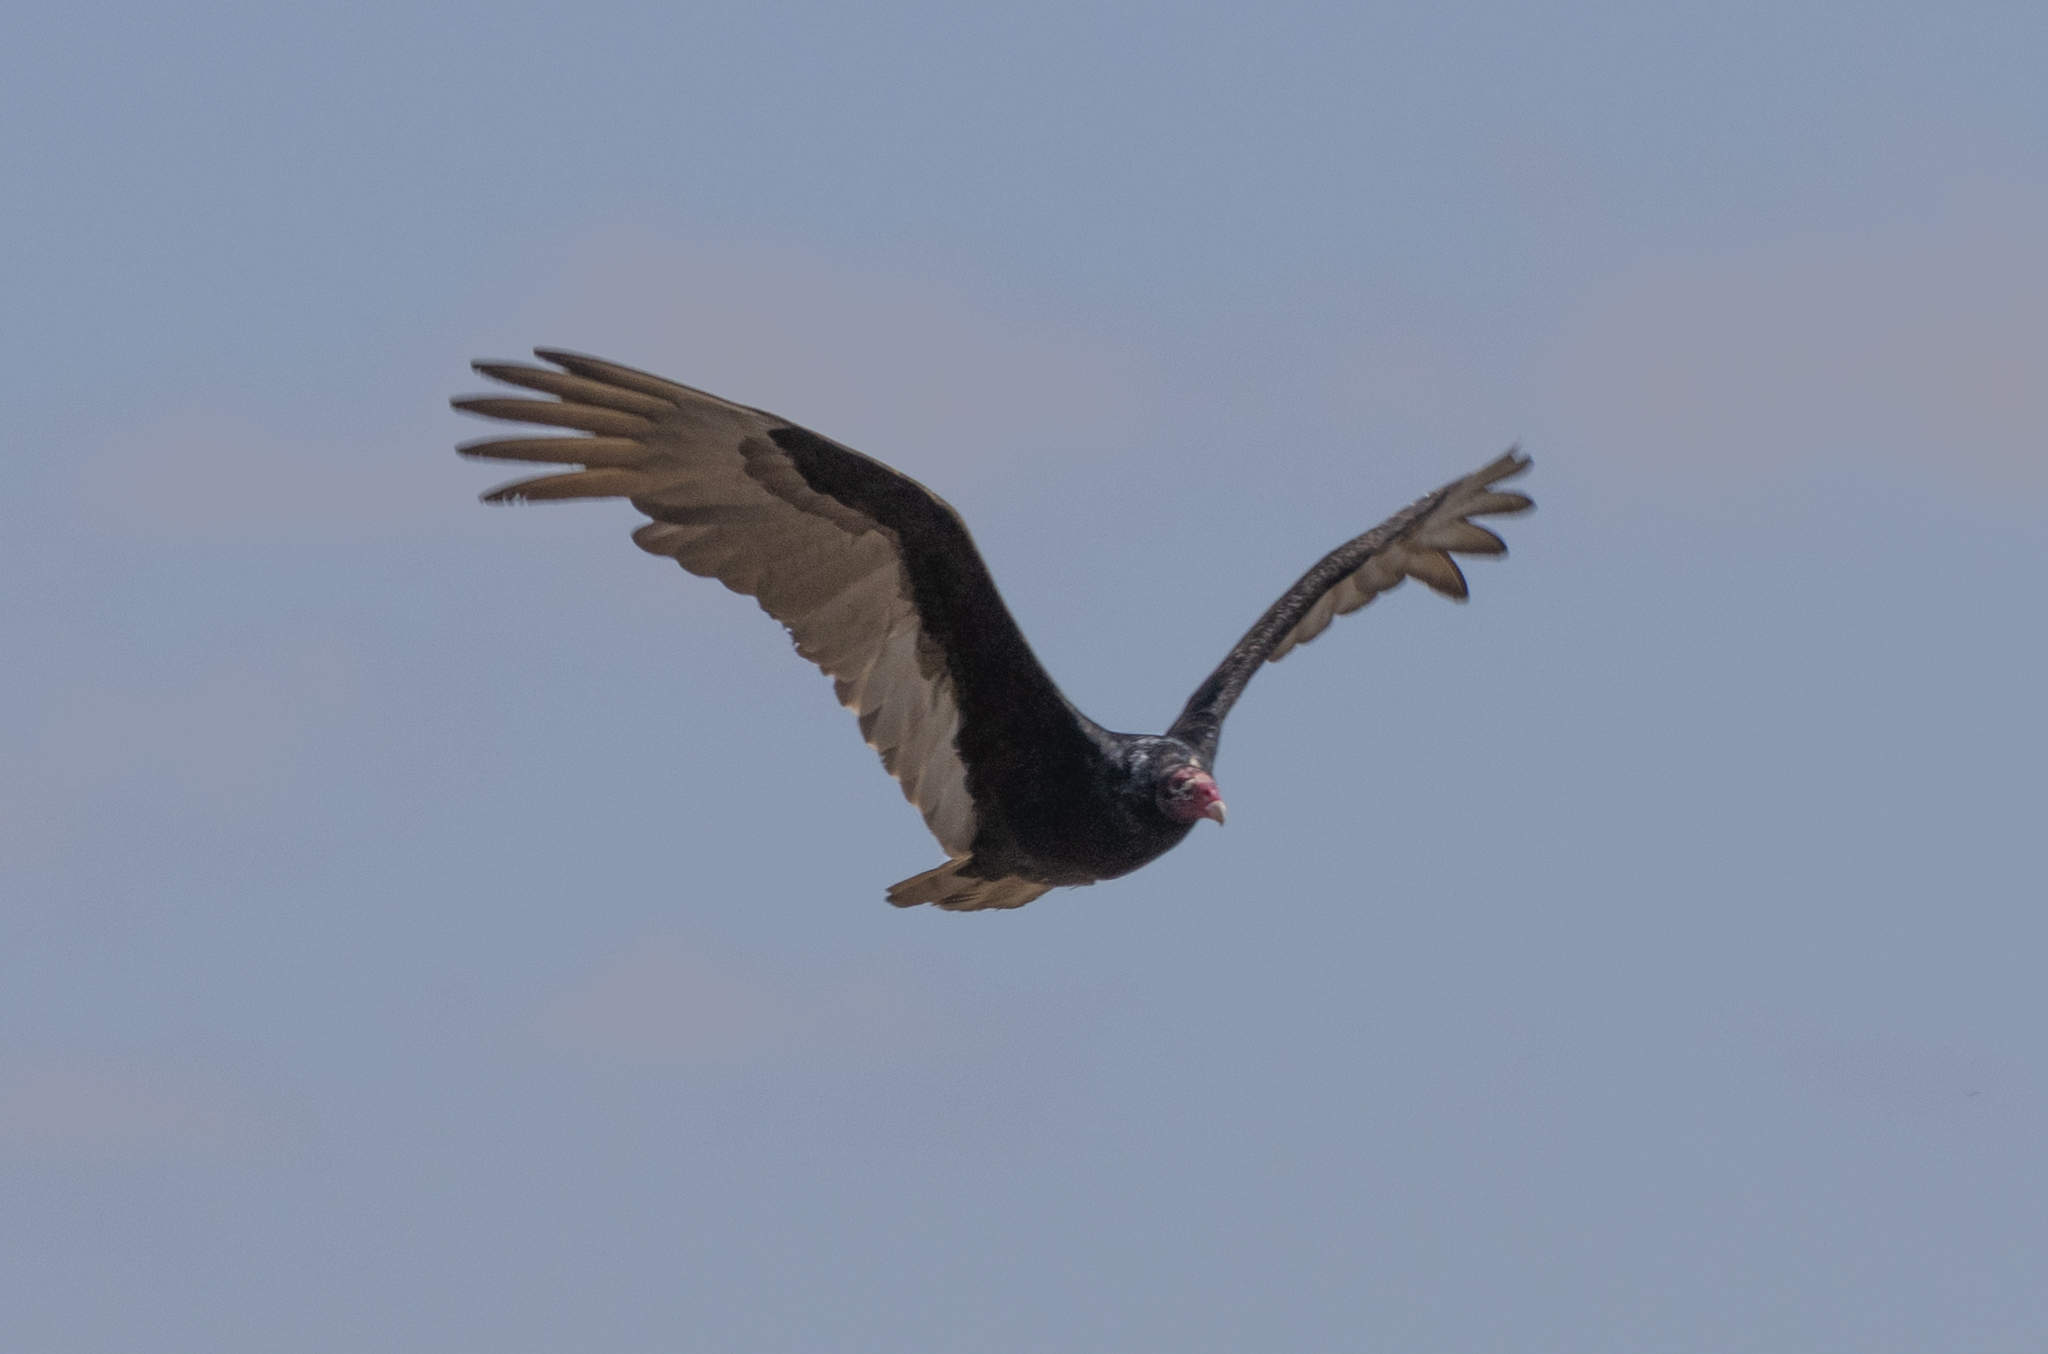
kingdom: Animalia
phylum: Chordata
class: Aves
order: Accipitriformes
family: Cathartidae
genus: Cathartes
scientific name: Cathartes aura
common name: Turkey vulture
